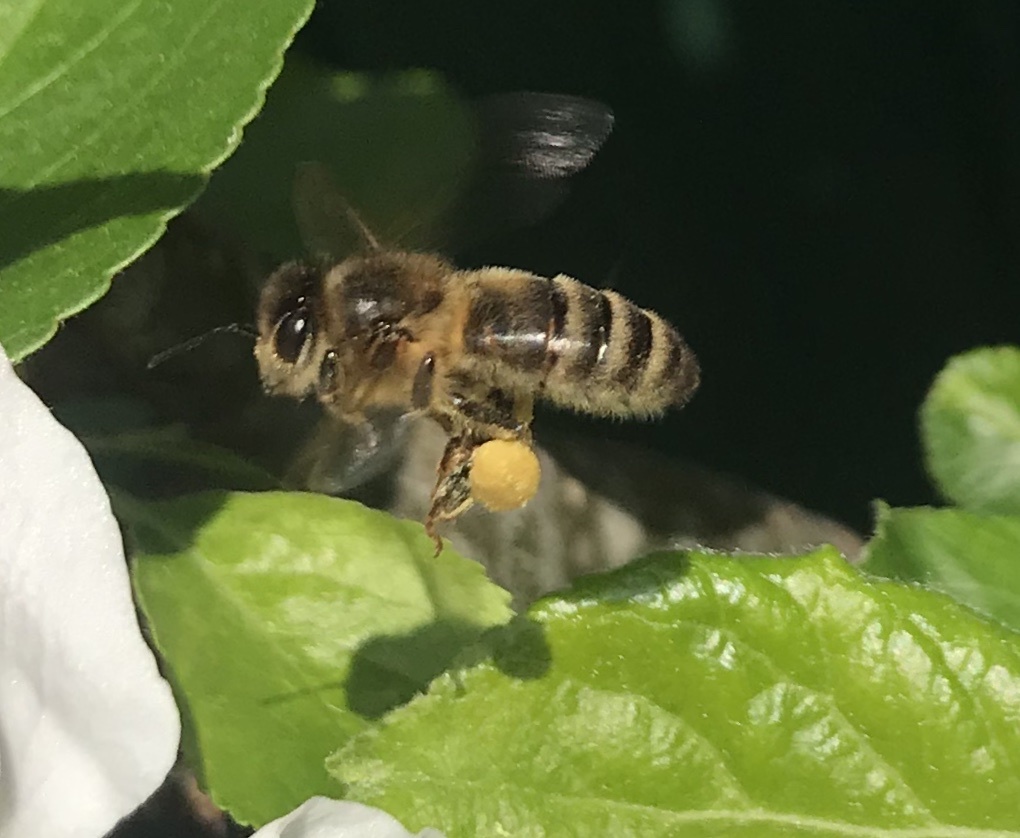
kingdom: Animalia
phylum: Arthropoda
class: Insecta
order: Hymenoptera
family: Apidae
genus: Apis
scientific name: Apis mellifera
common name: Honey bee
